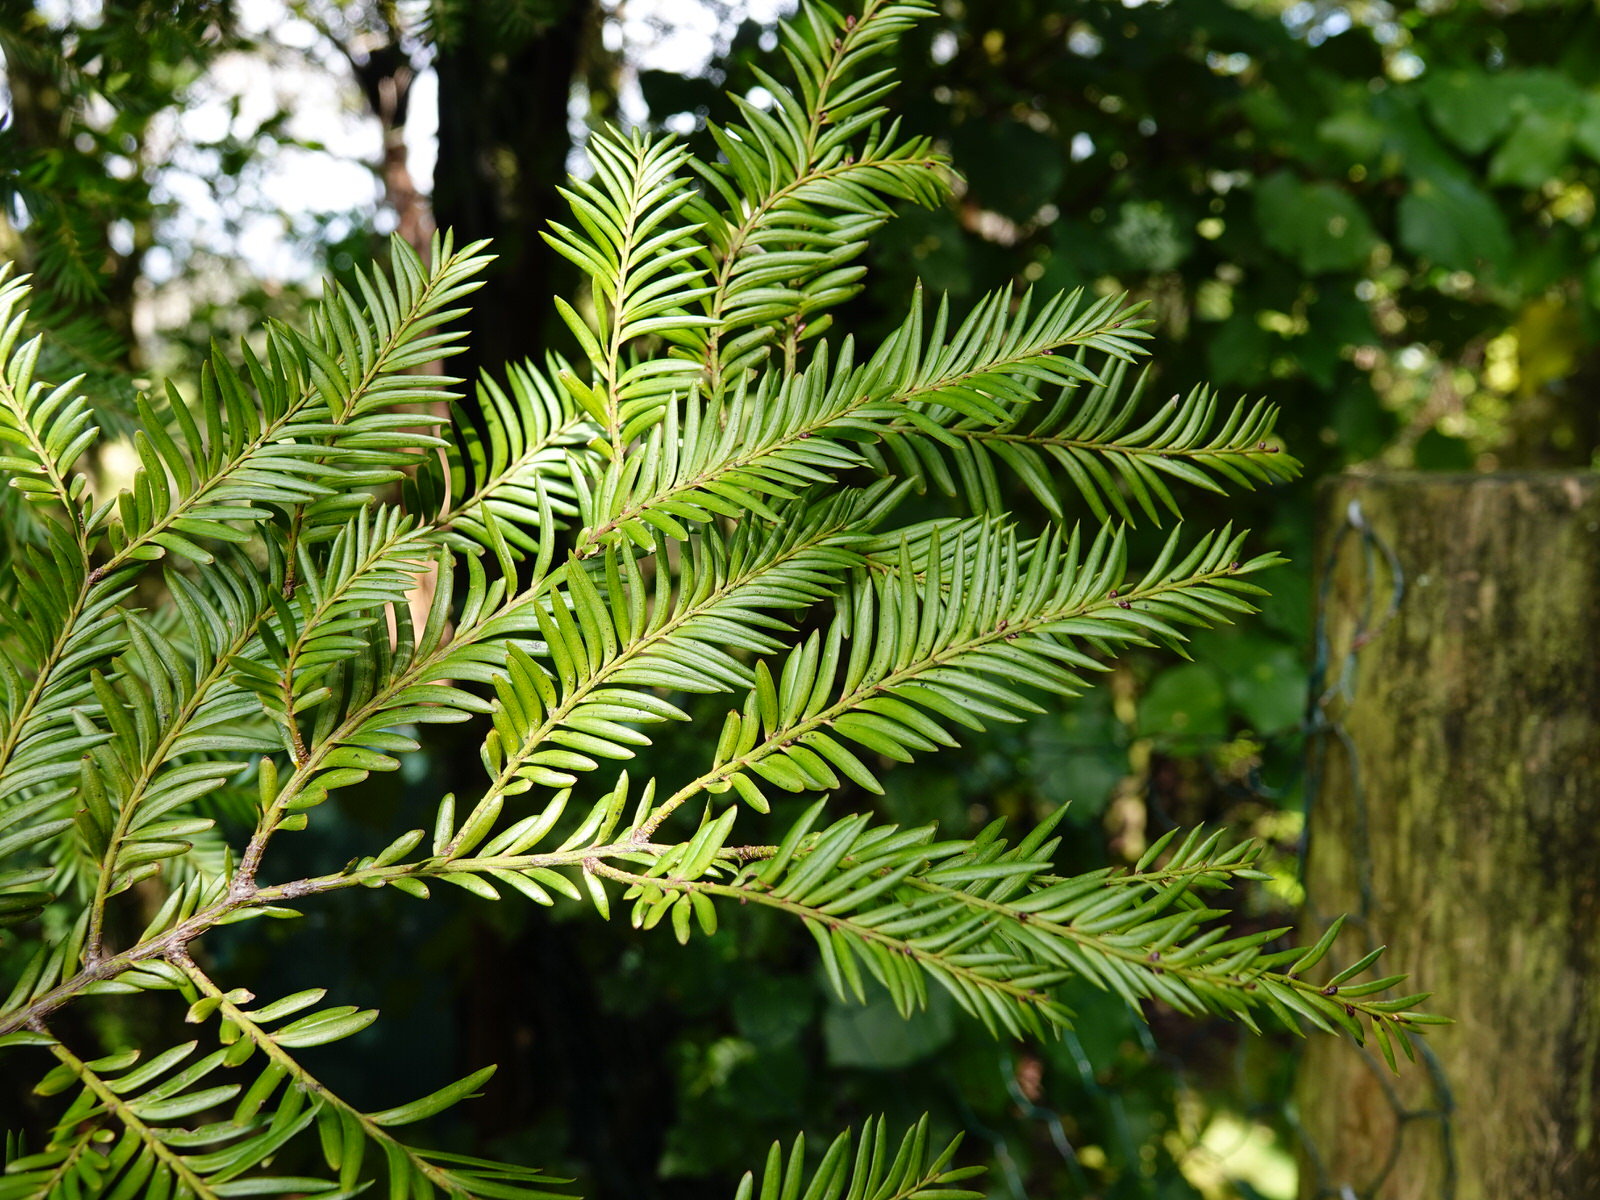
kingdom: Plantae
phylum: Tracheophyta
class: Pinopsida
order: Pinales
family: Podocarpaceae
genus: Prumnopitys
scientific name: Prumnopitys ferruginea
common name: Brown pine
